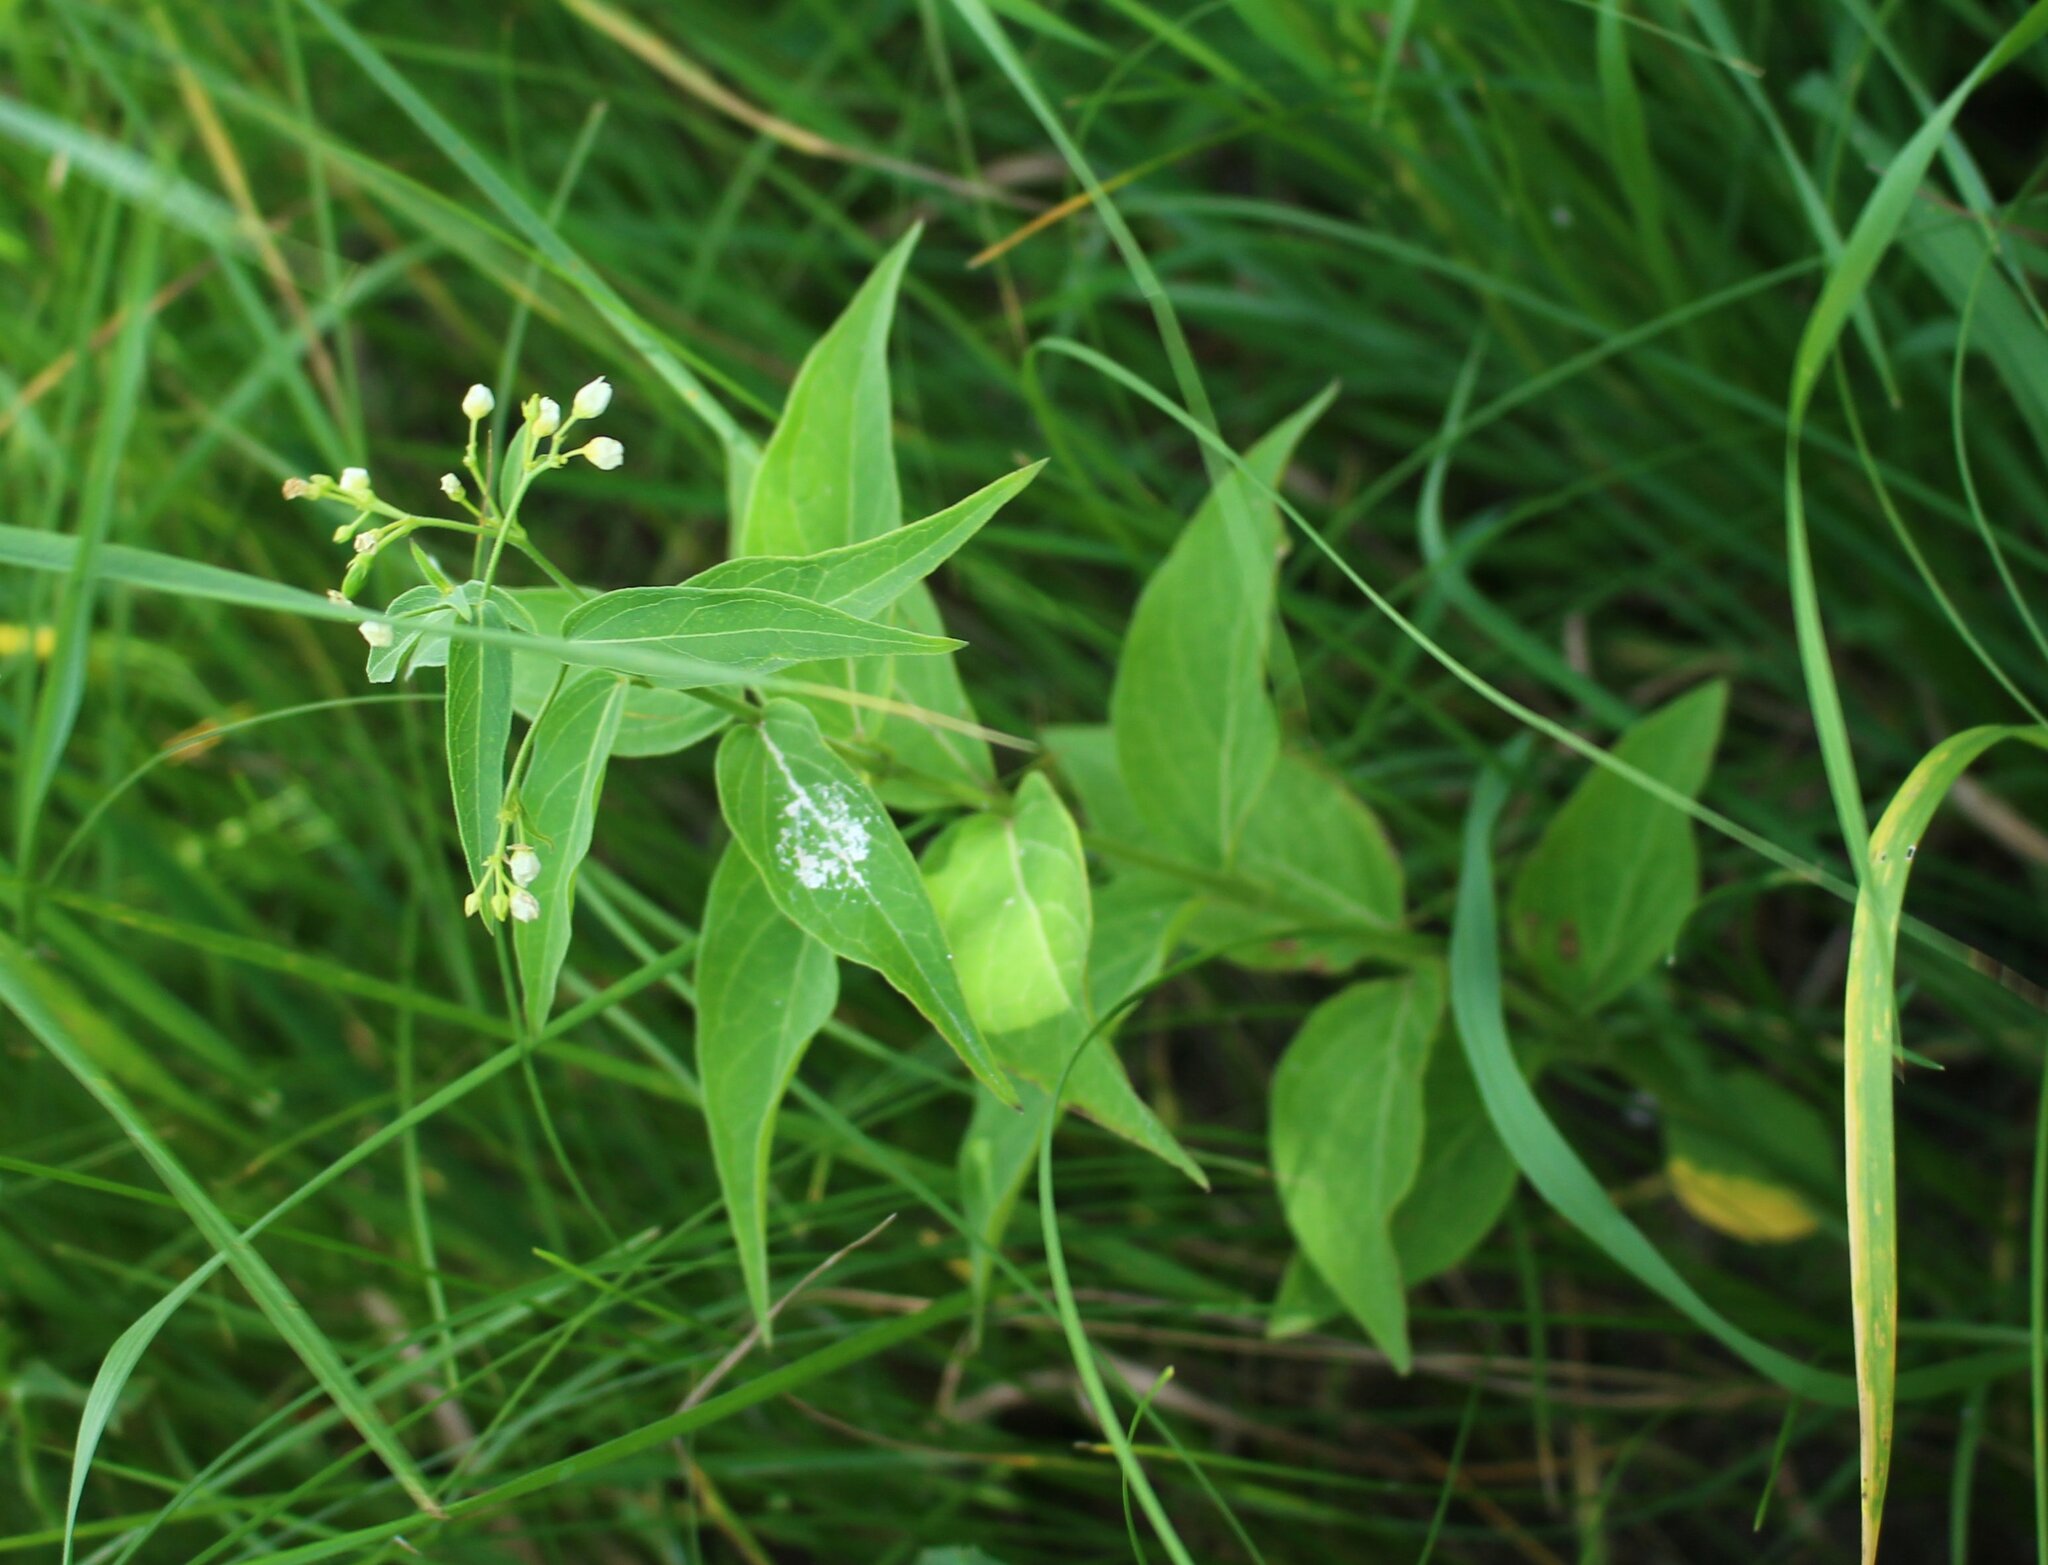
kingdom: Plantae
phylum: Tracheophyta
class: Magnoliopsida
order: Gentianales
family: Apocynaceae
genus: Vincetoxicum
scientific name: Vincetoxicum hirundinaria
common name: White swallowwort
